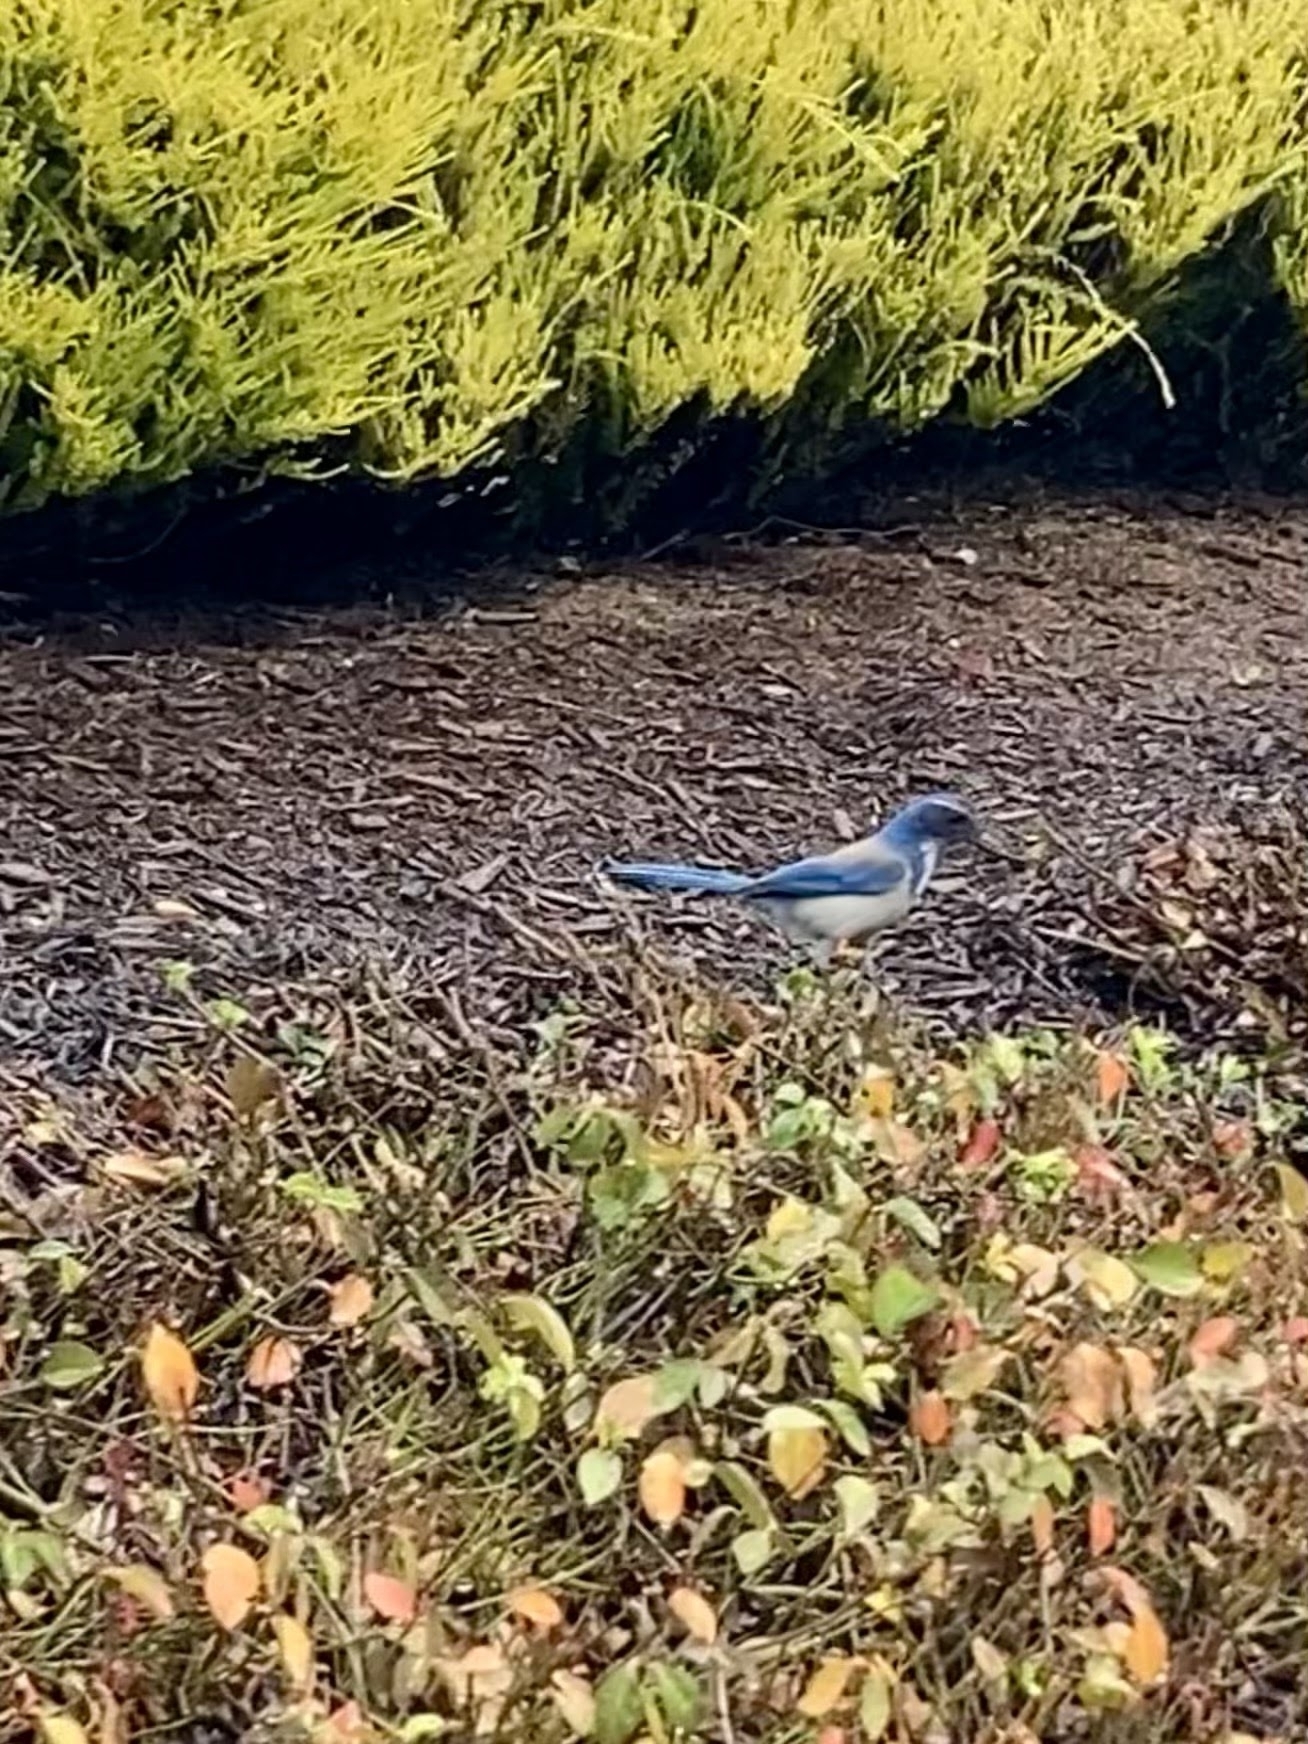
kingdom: Animalia
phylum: Chordata
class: Aves
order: Passeriformes
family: Corvidae
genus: Aphelocoma
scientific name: Aphelocoma californica
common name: California scrub-jay
